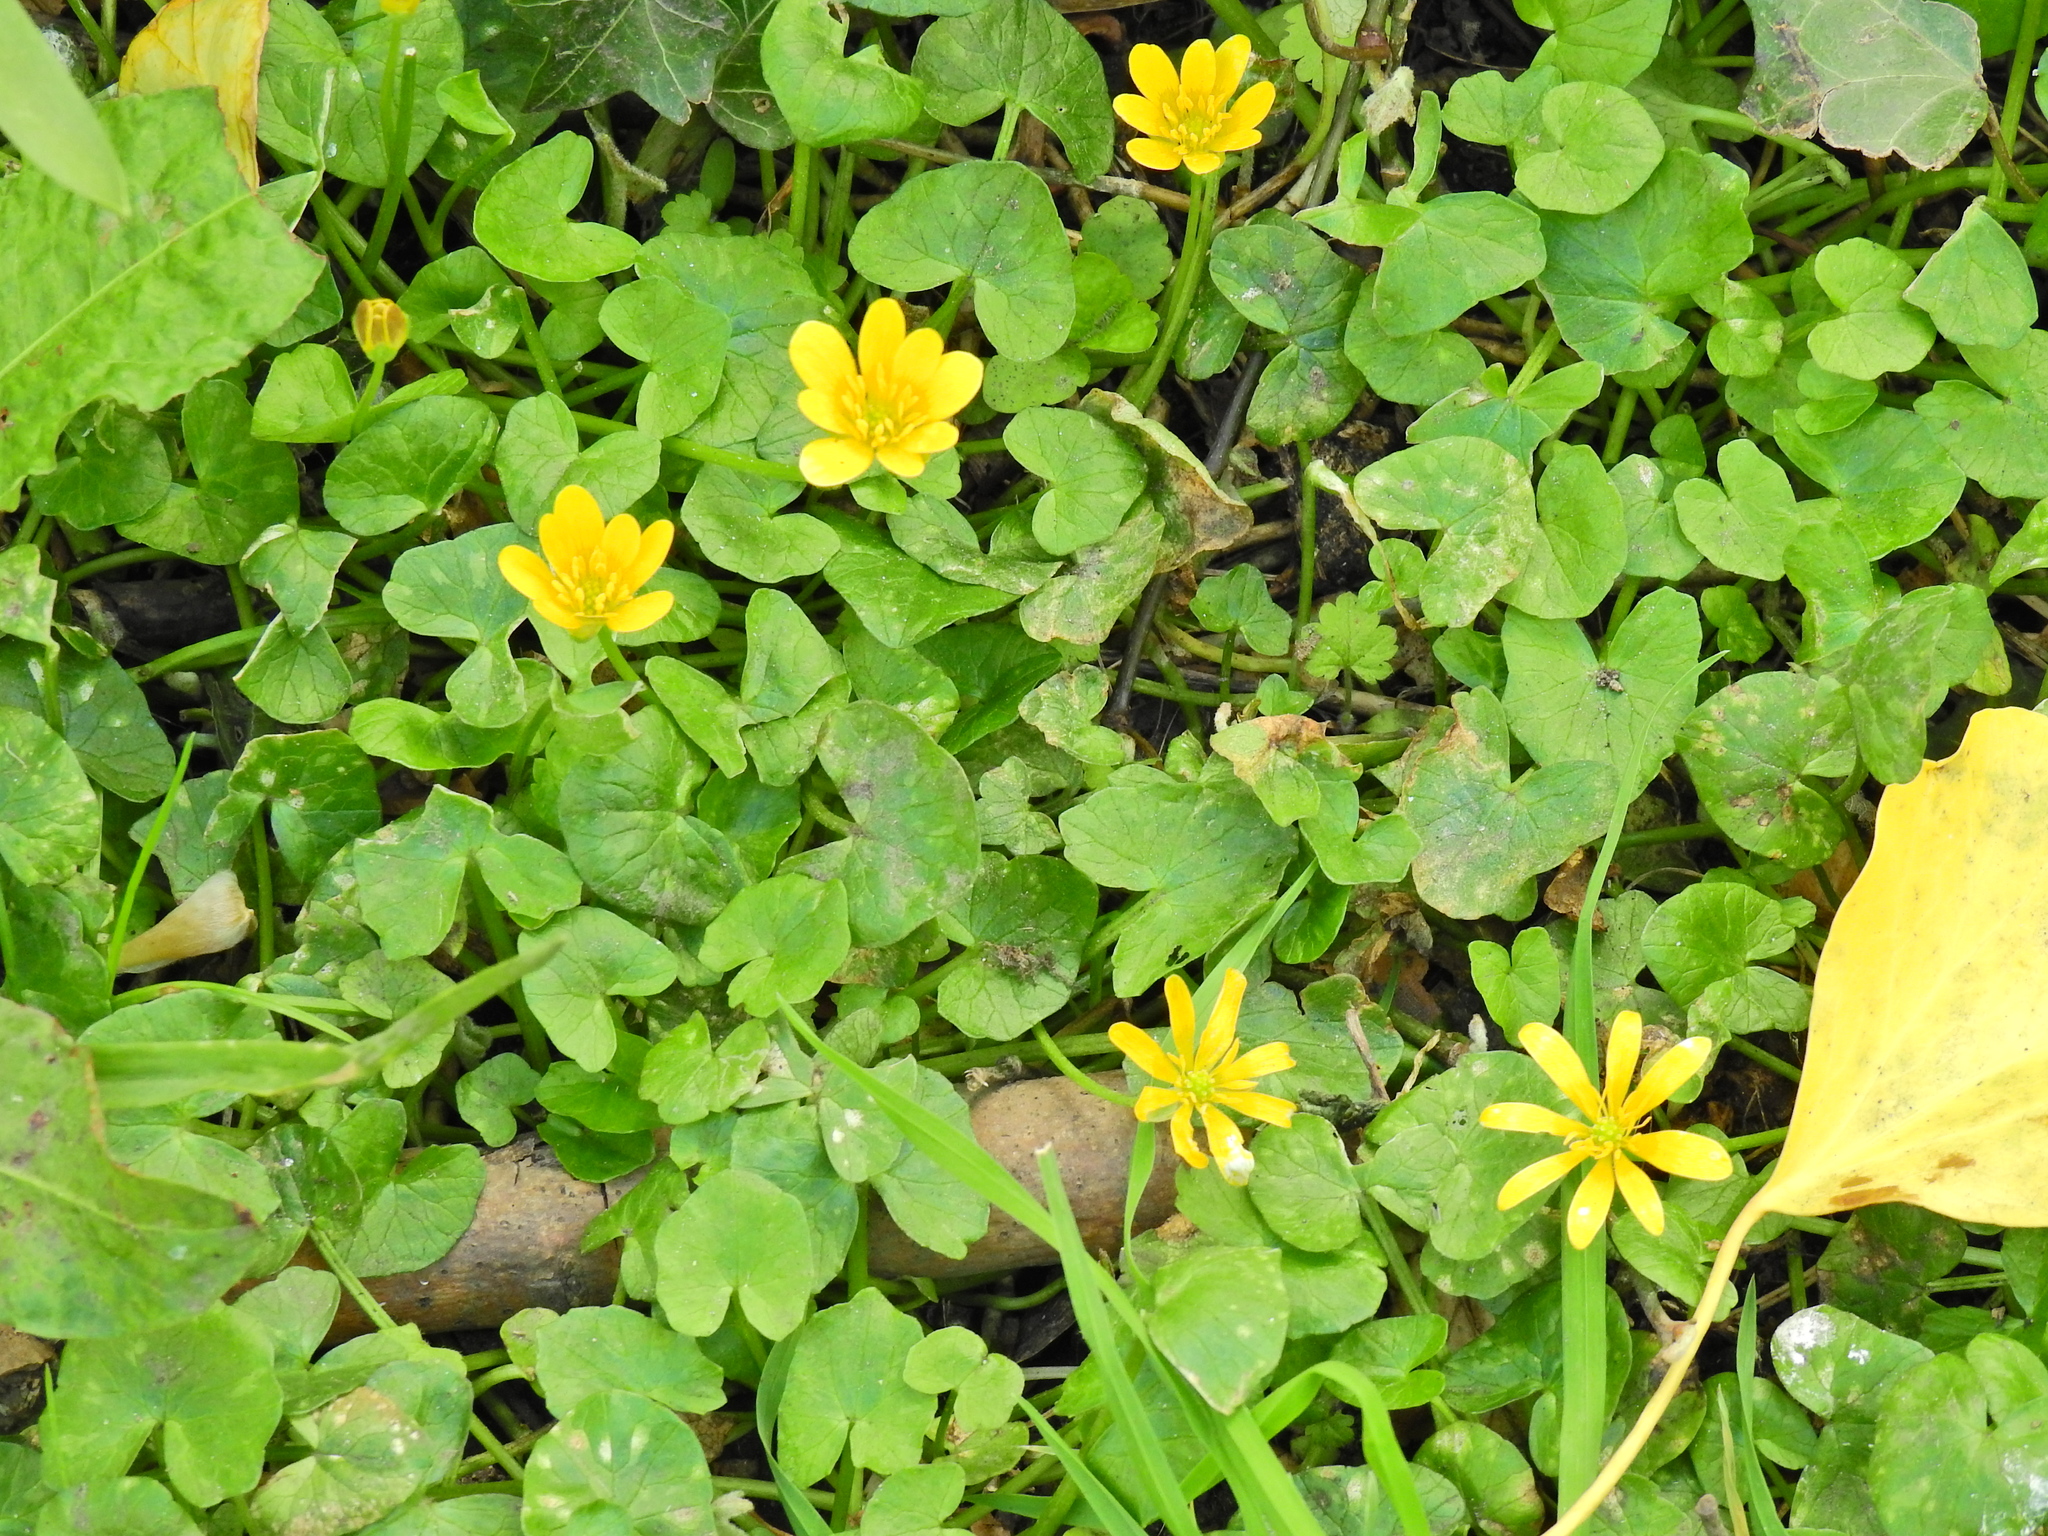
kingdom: Plantae
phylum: Tracheophyta
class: Magnoliopsida
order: Ranunculales
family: Ranunculaceae
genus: Ficaria
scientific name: Ficaria verna
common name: Lesser celandine
